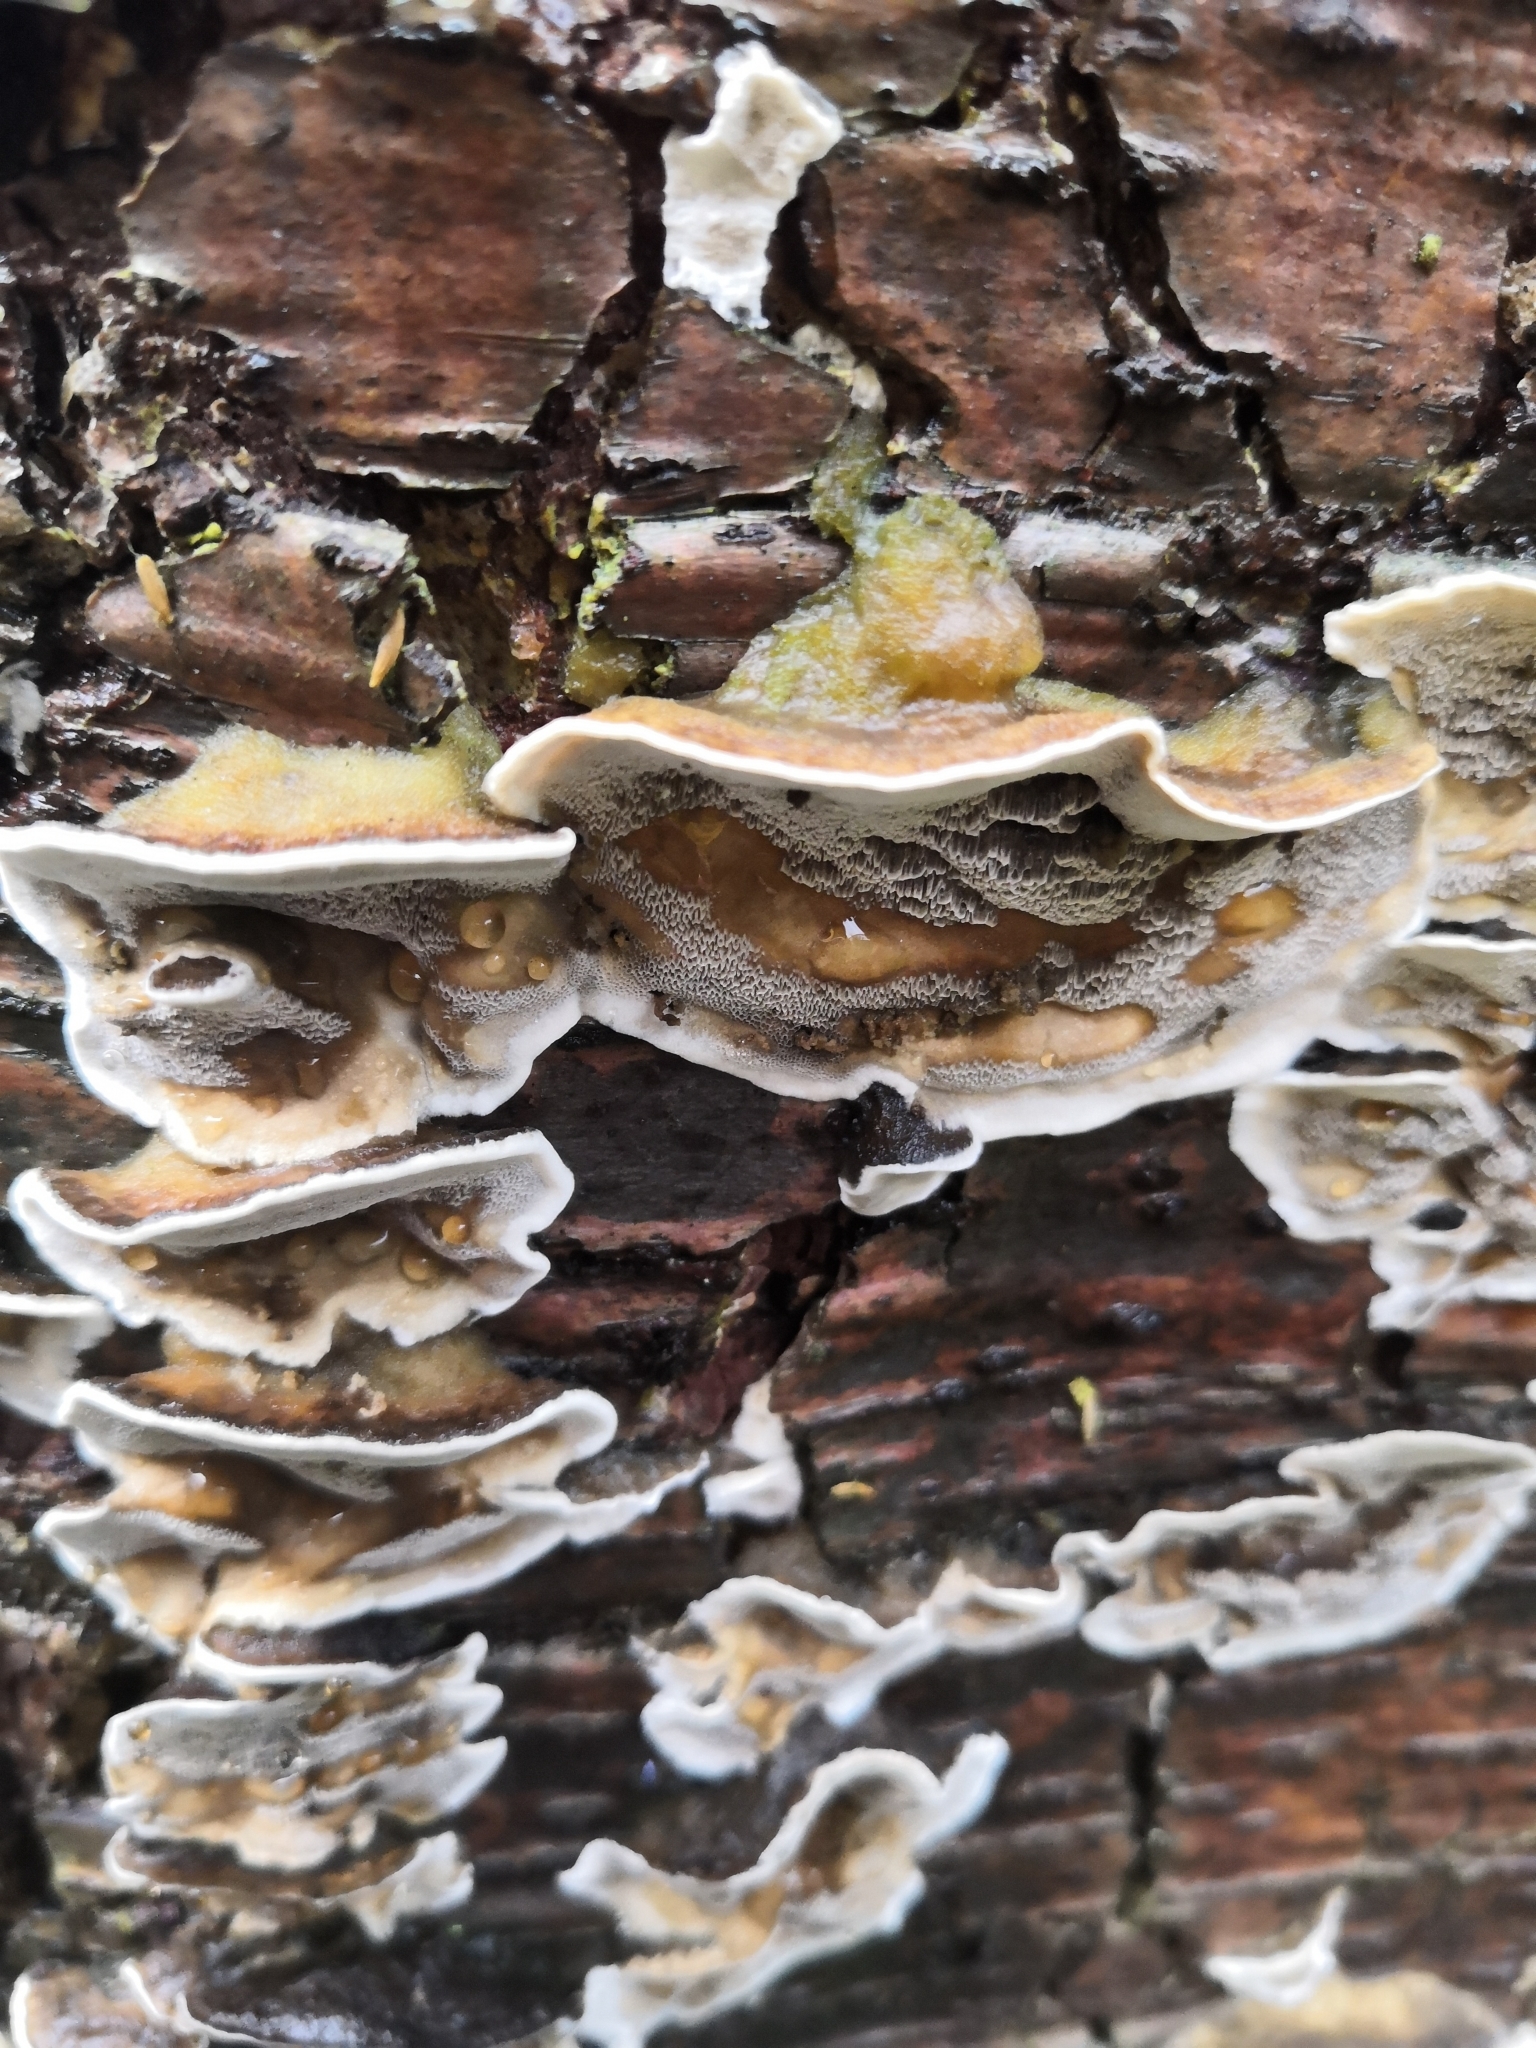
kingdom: Fungi
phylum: Basidiomycota
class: Agaricomycetes
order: Polyporales
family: Phanerochaetaceae
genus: Bjerkandera
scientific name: Bjerkandera adusta
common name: Smoky bracket
